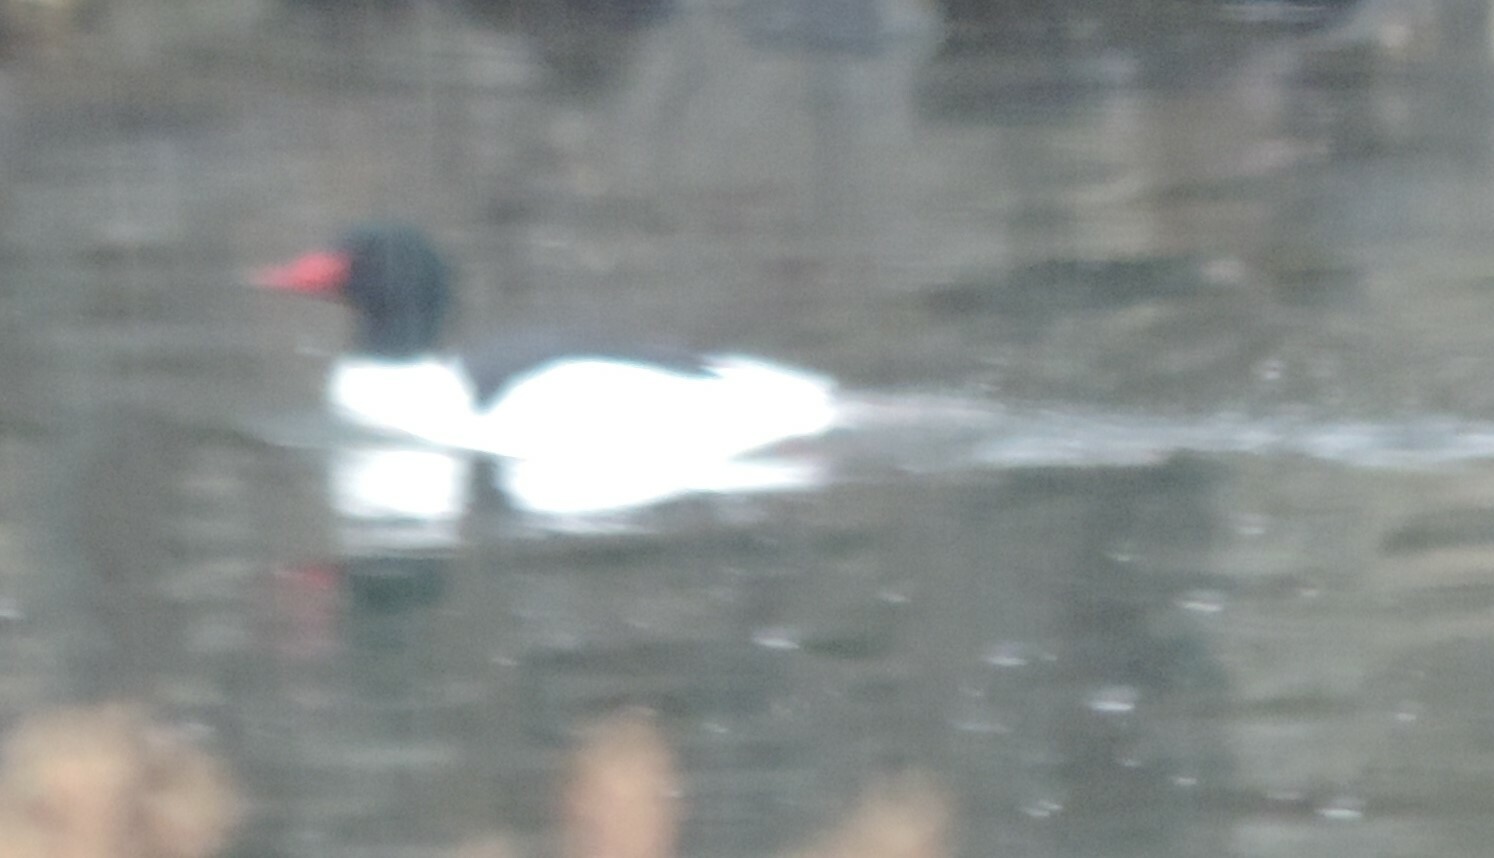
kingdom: Animalia
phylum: Chordata
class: Aves
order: Anseriformes
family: Anatidae
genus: Mergus
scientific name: Mergus merganser
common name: Common merganser
